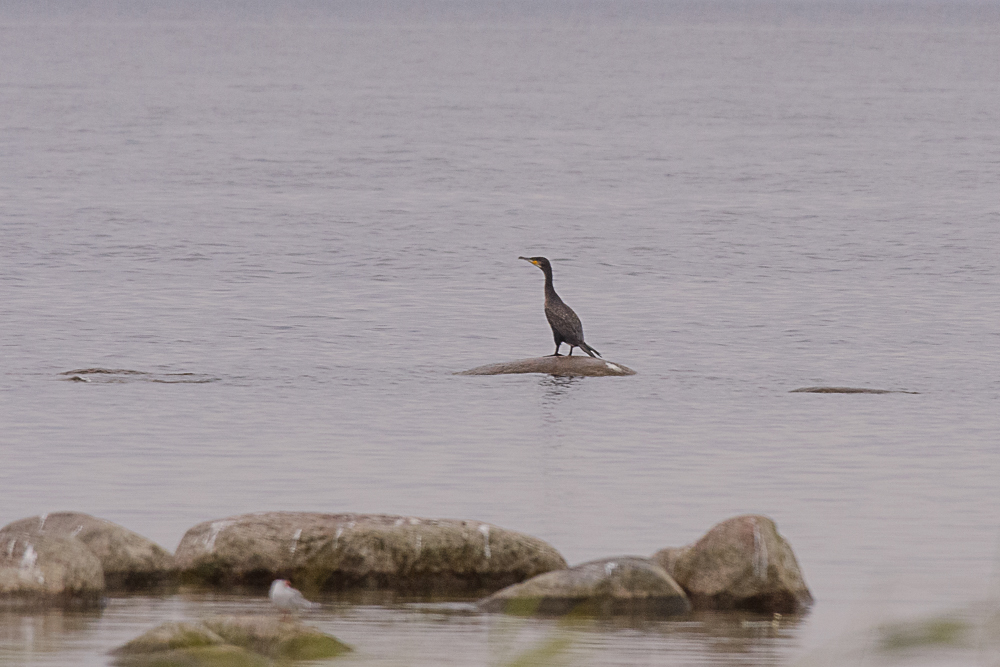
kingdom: Animalia
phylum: Chordata
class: Aves
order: Suliformes
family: Phalacrocoracidae
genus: Phalacrocorax
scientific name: Phalacrocorax carbo
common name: Great cormorant
